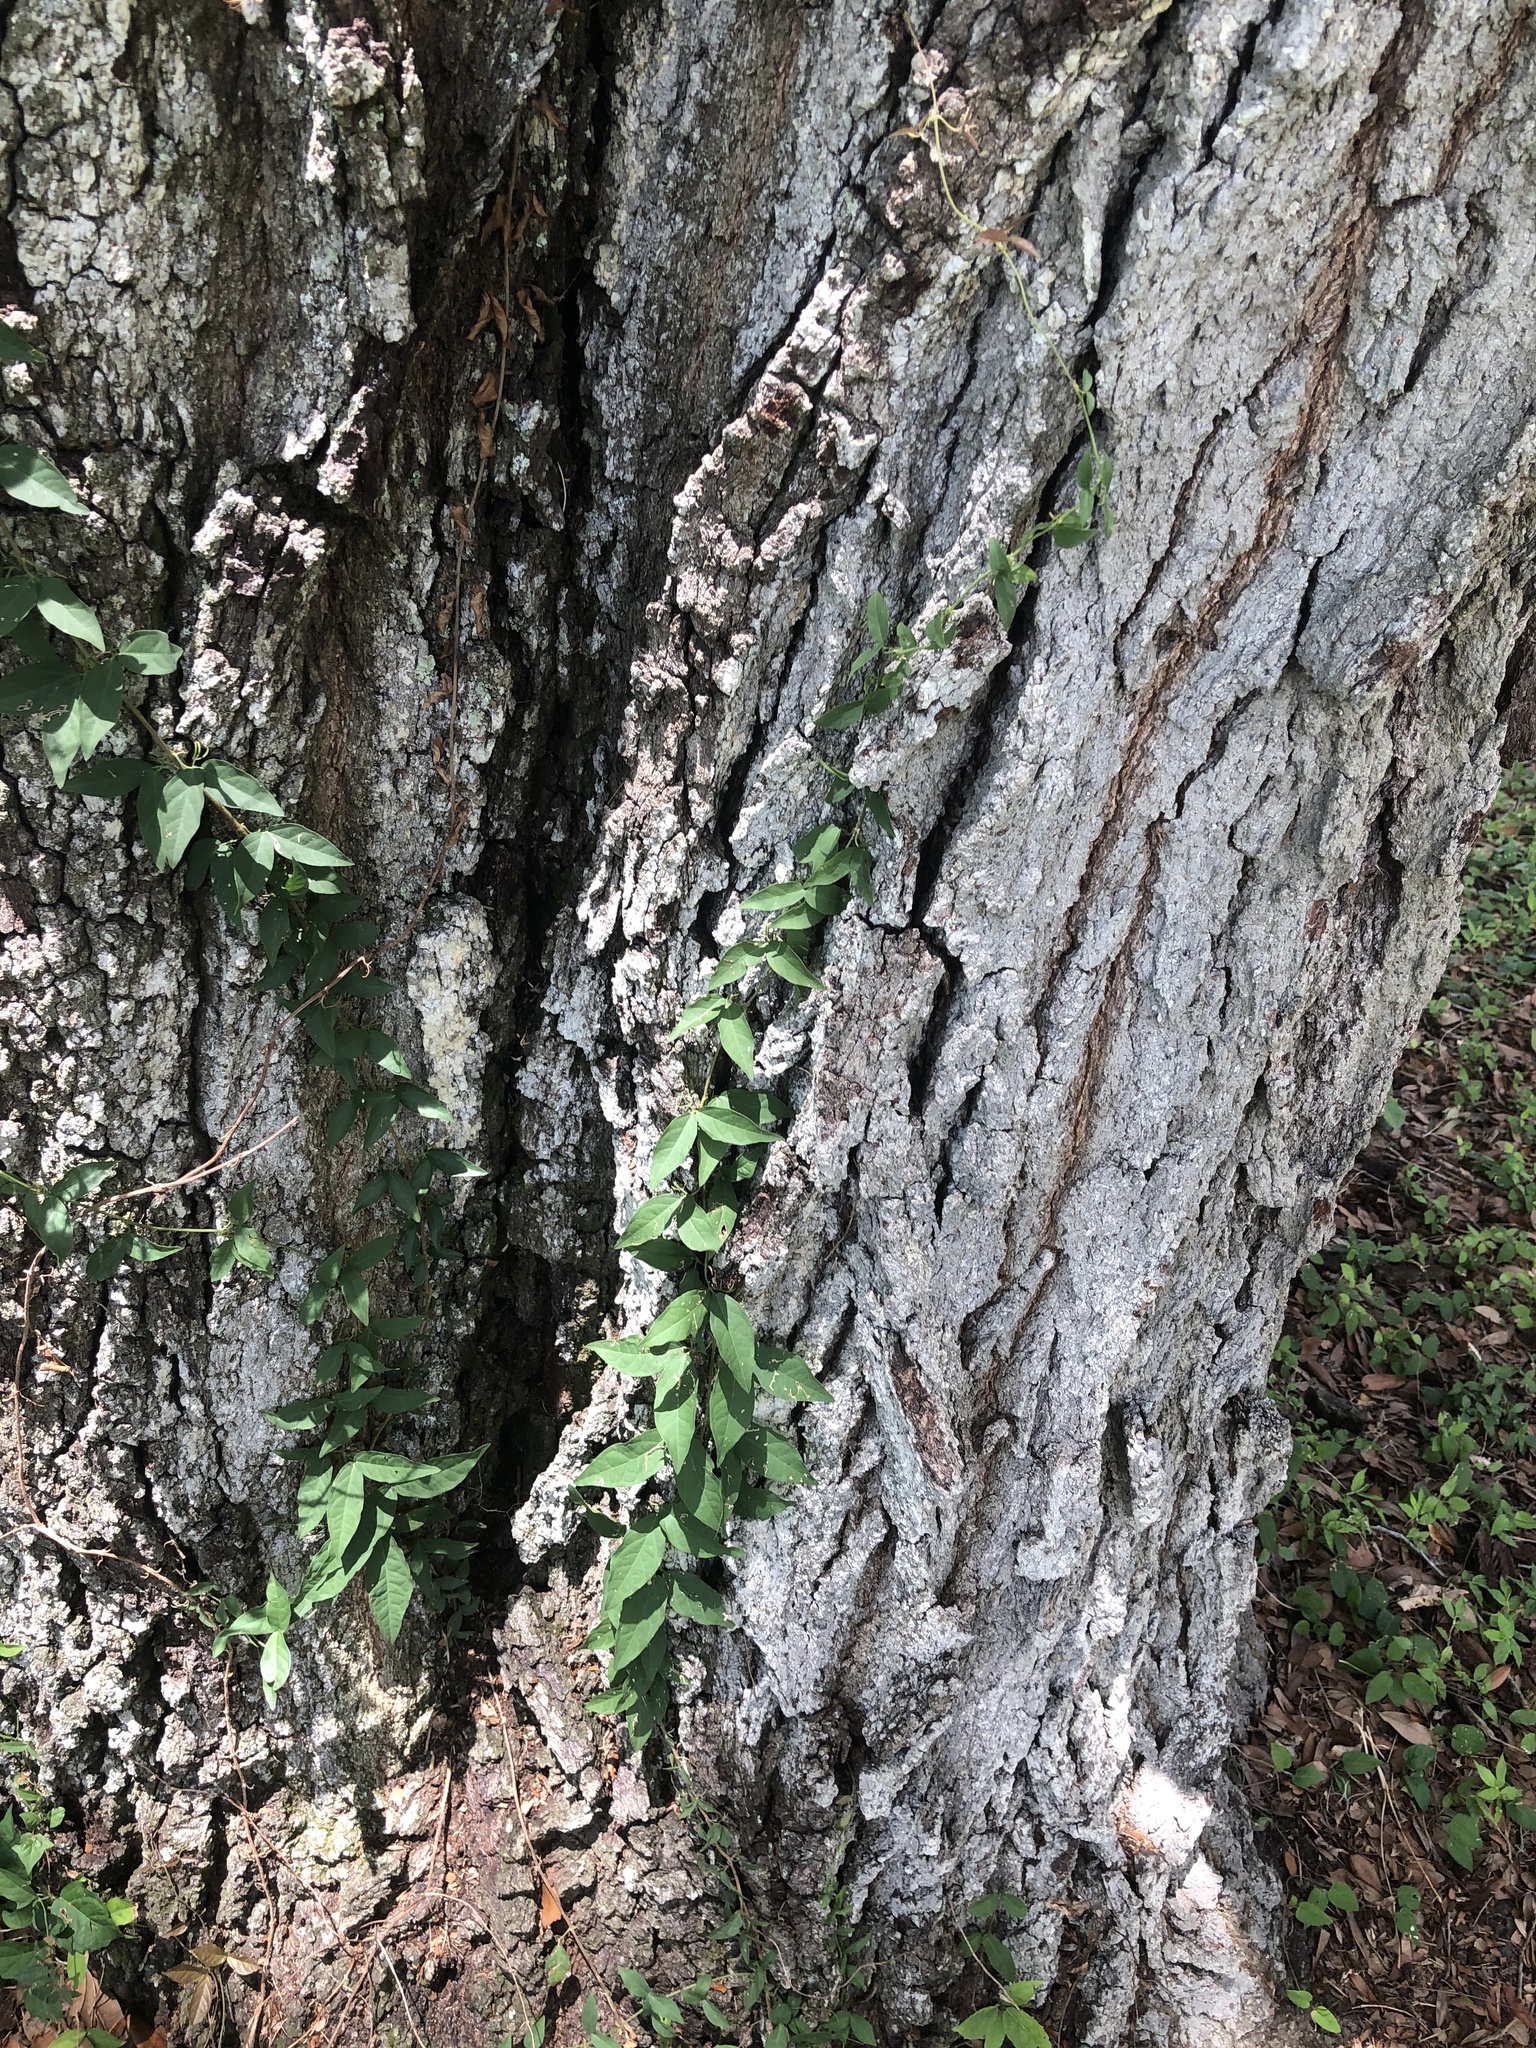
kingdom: Plantae
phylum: Tracheophyta
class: Magnoliopsida
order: Lamiales
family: Bignoniaceae
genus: Dolichandra
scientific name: Dolichandra unguis-cati
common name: Catclaw vine
